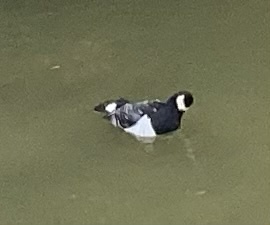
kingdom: Animalia
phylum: Chordata
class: Aves
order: Anseriformes
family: Anatidae
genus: Branta
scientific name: Branta leucopsis
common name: Barnacle goose
